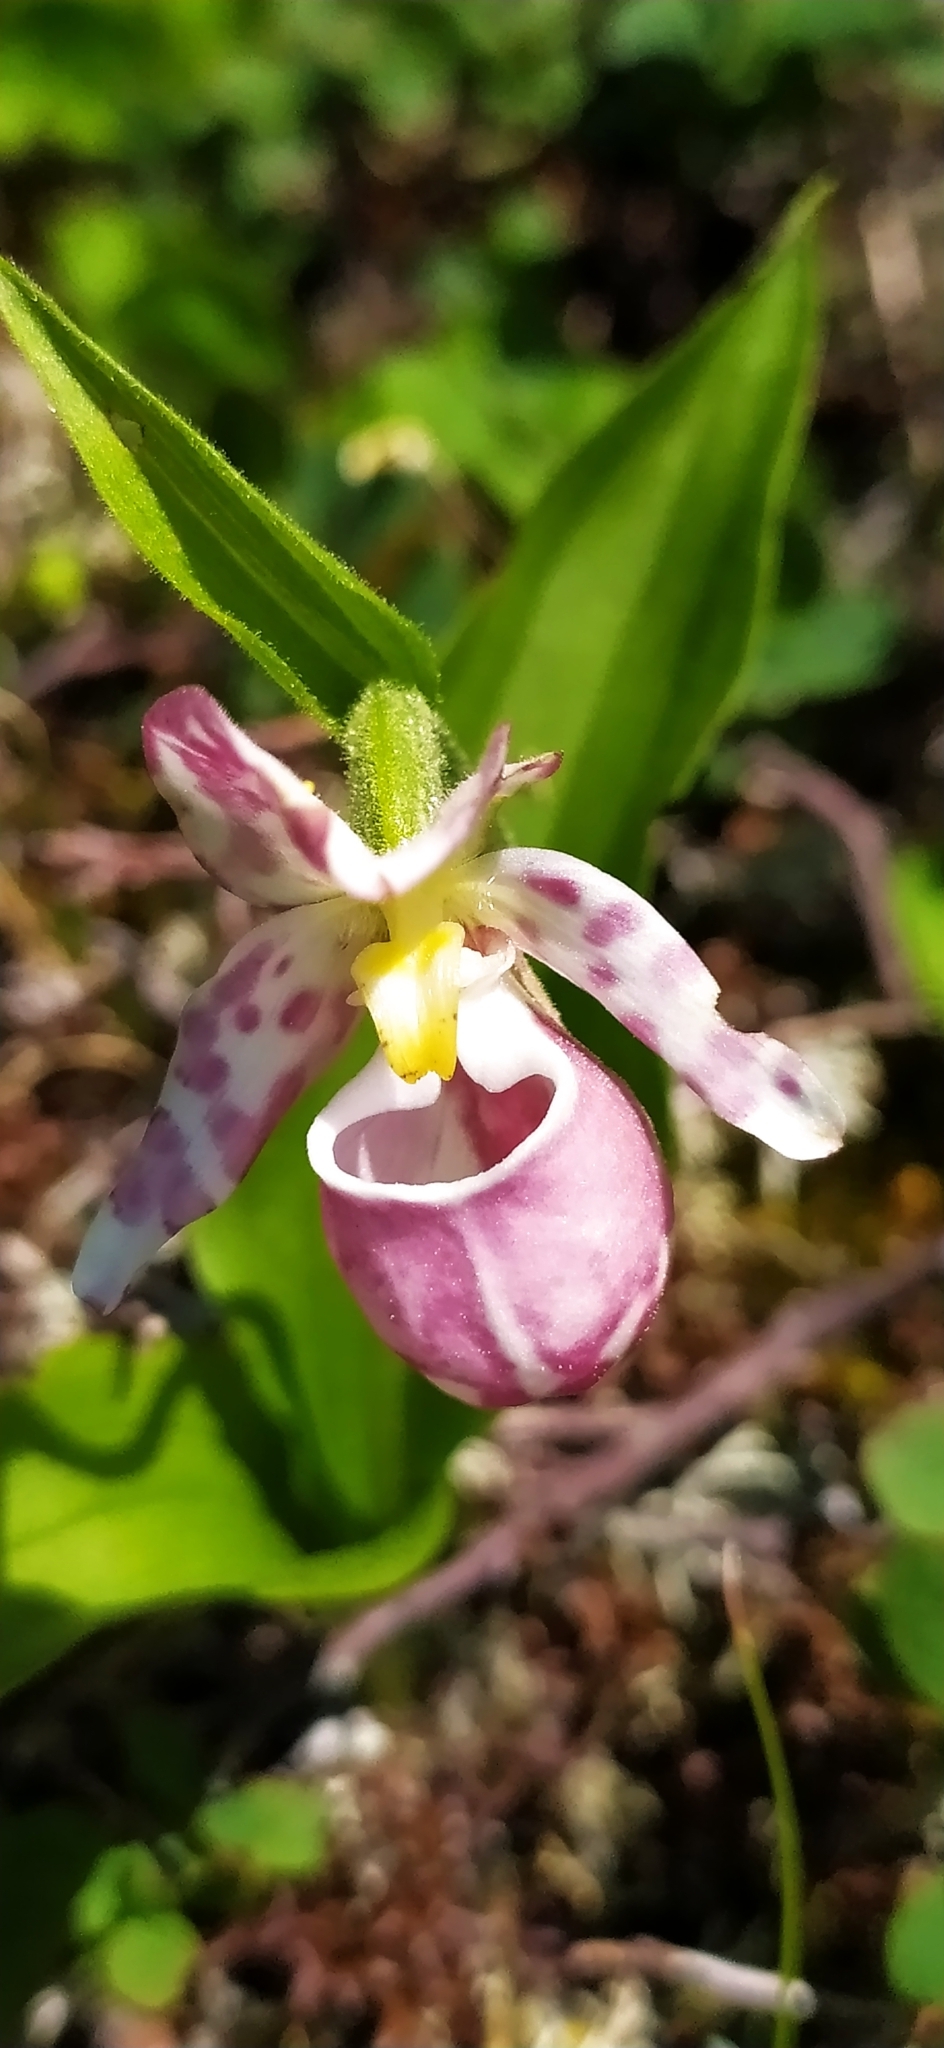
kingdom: Plantae
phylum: Tracheophyta
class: Liliopsida
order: Asparagales
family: Orchidaceae
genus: Cypripedium
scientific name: Cypripedium guttatum
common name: Pink lady slipper
